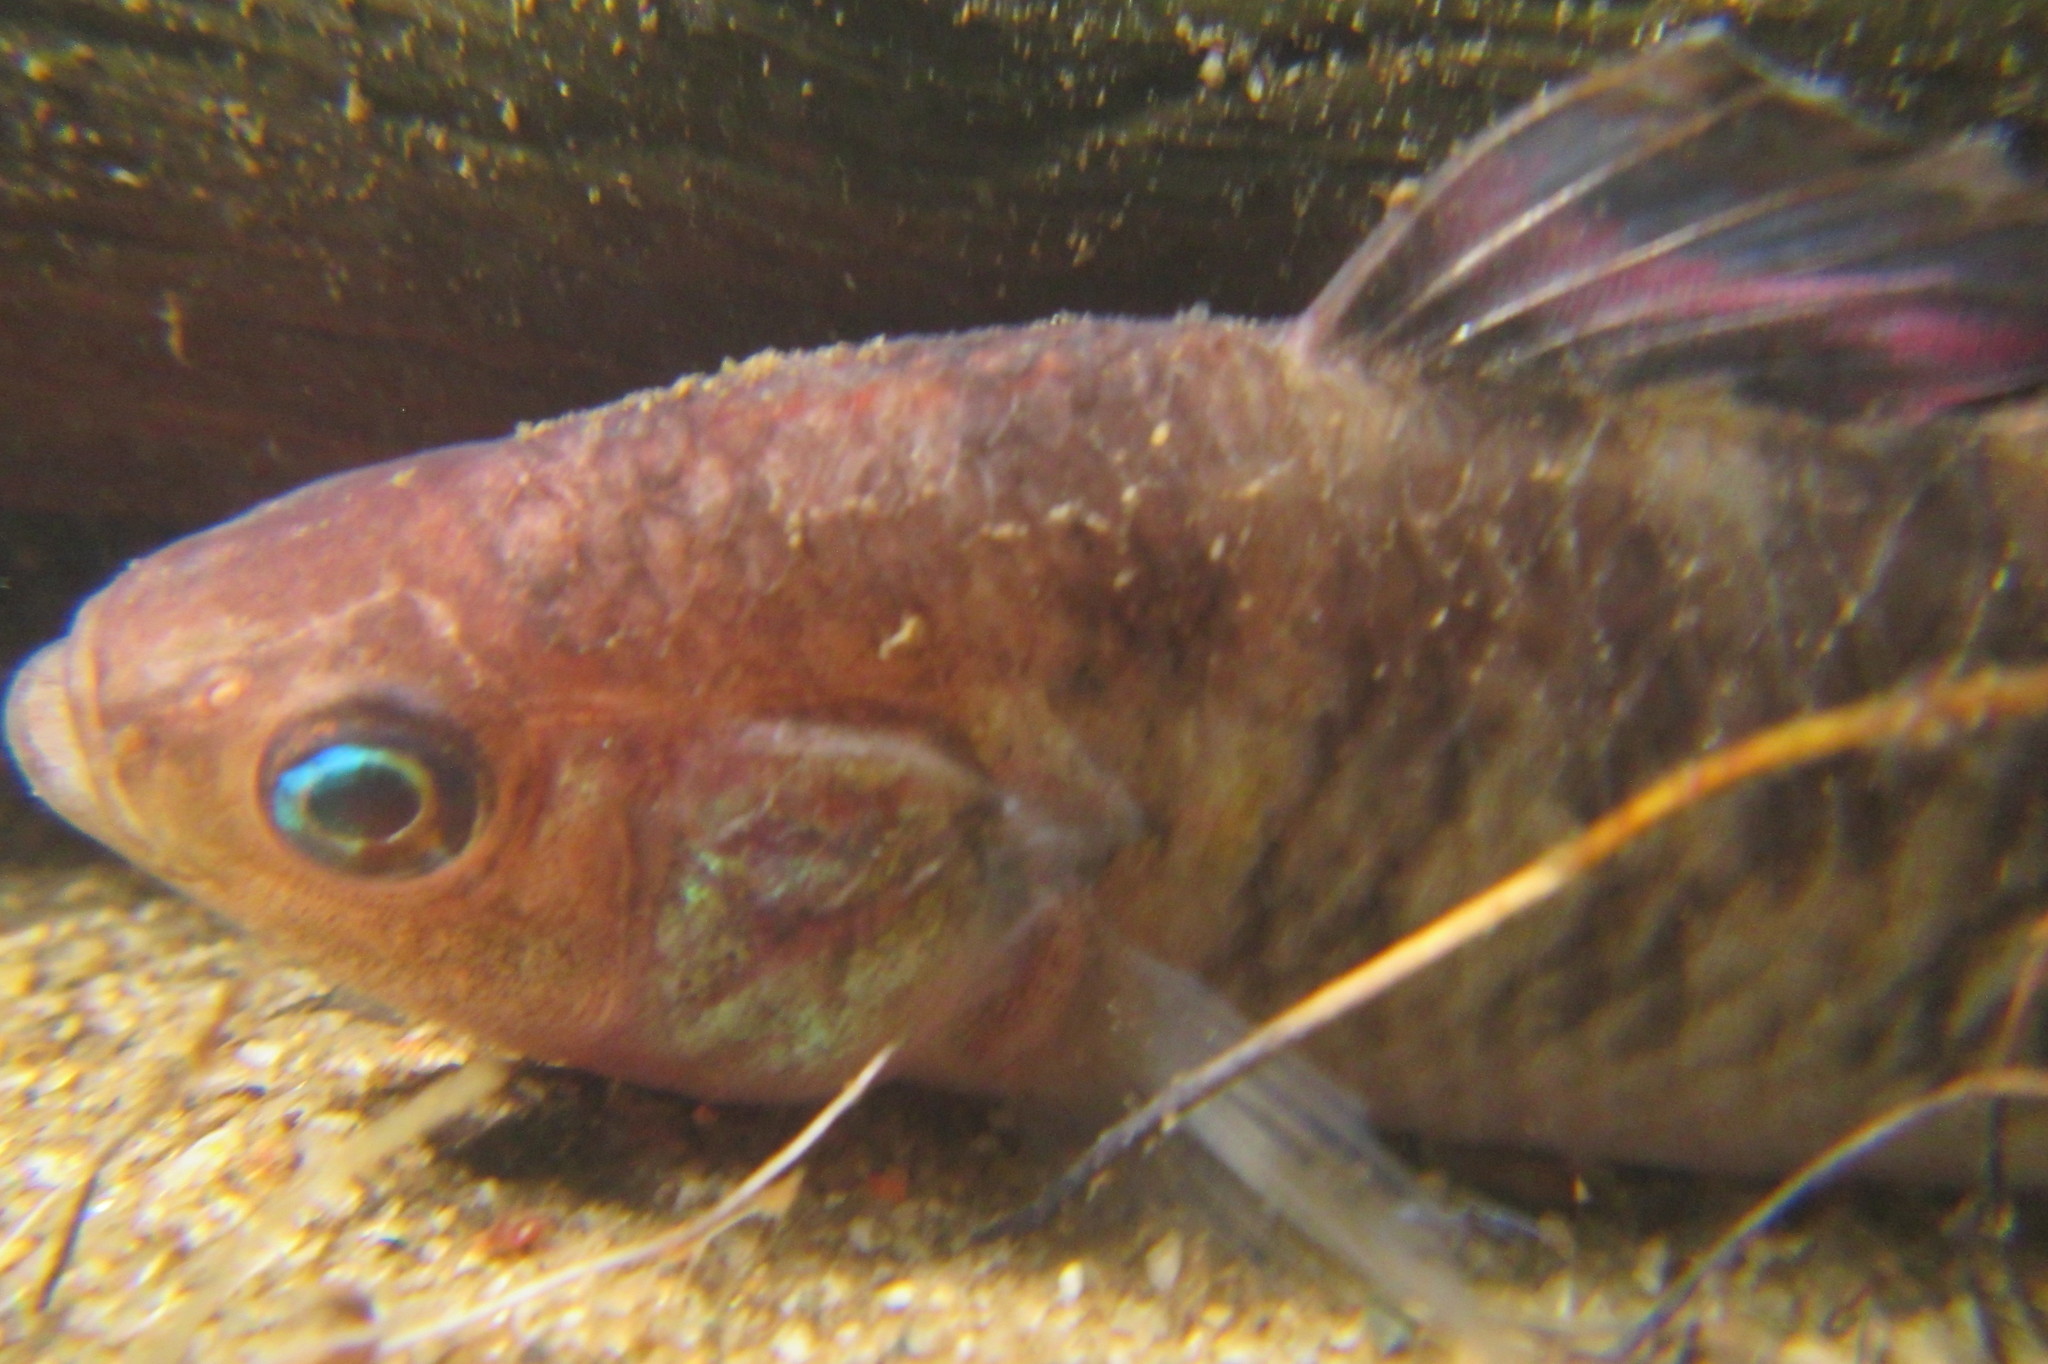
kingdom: Animalia
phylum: Chordata
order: Perciformes
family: Eleotridae
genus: Hypseleotris
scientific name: Hypseleotris compressa
